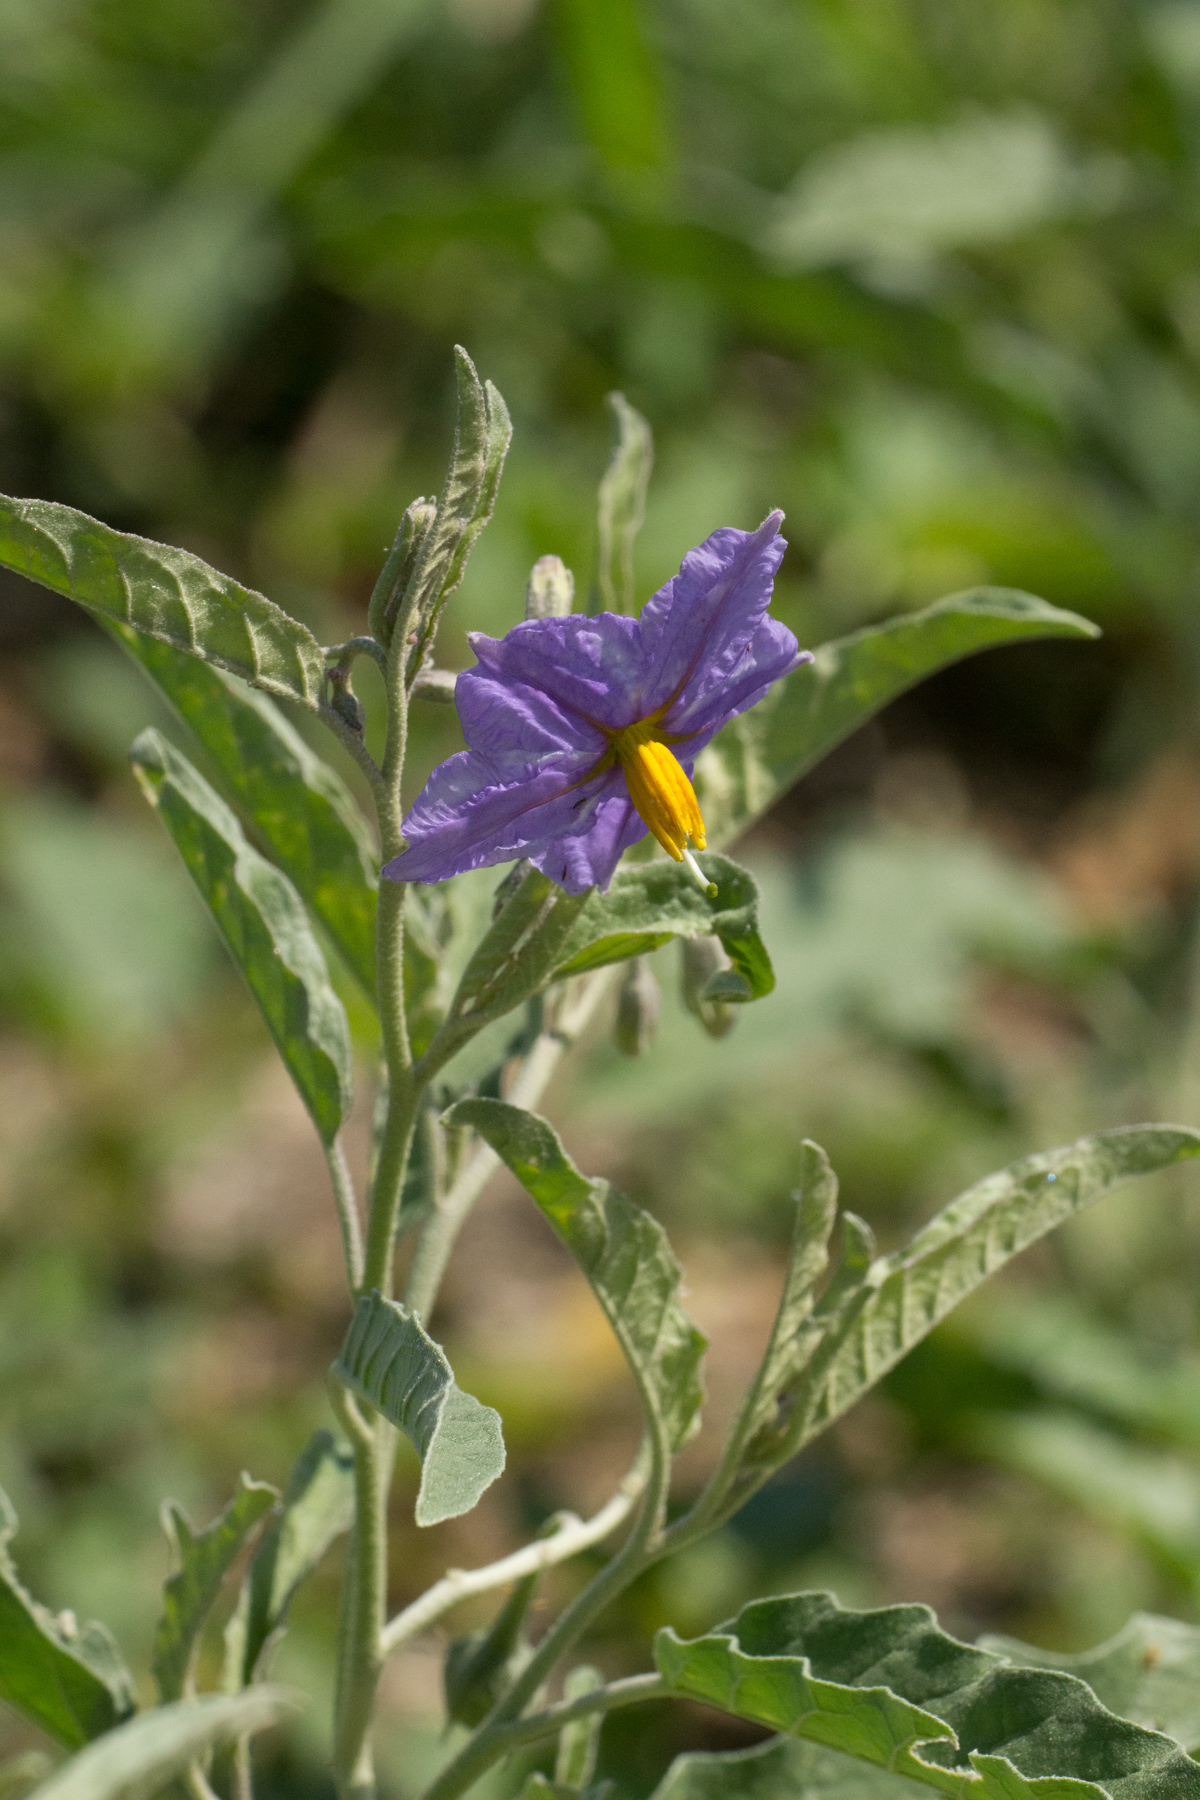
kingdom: Plantae
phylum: Tracheophyta
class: Magnoliopsida
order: Solanales
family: Solanaceae
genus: Solanum
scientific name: Solanum elaeagnifolium
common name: Silverleaf nightshade
